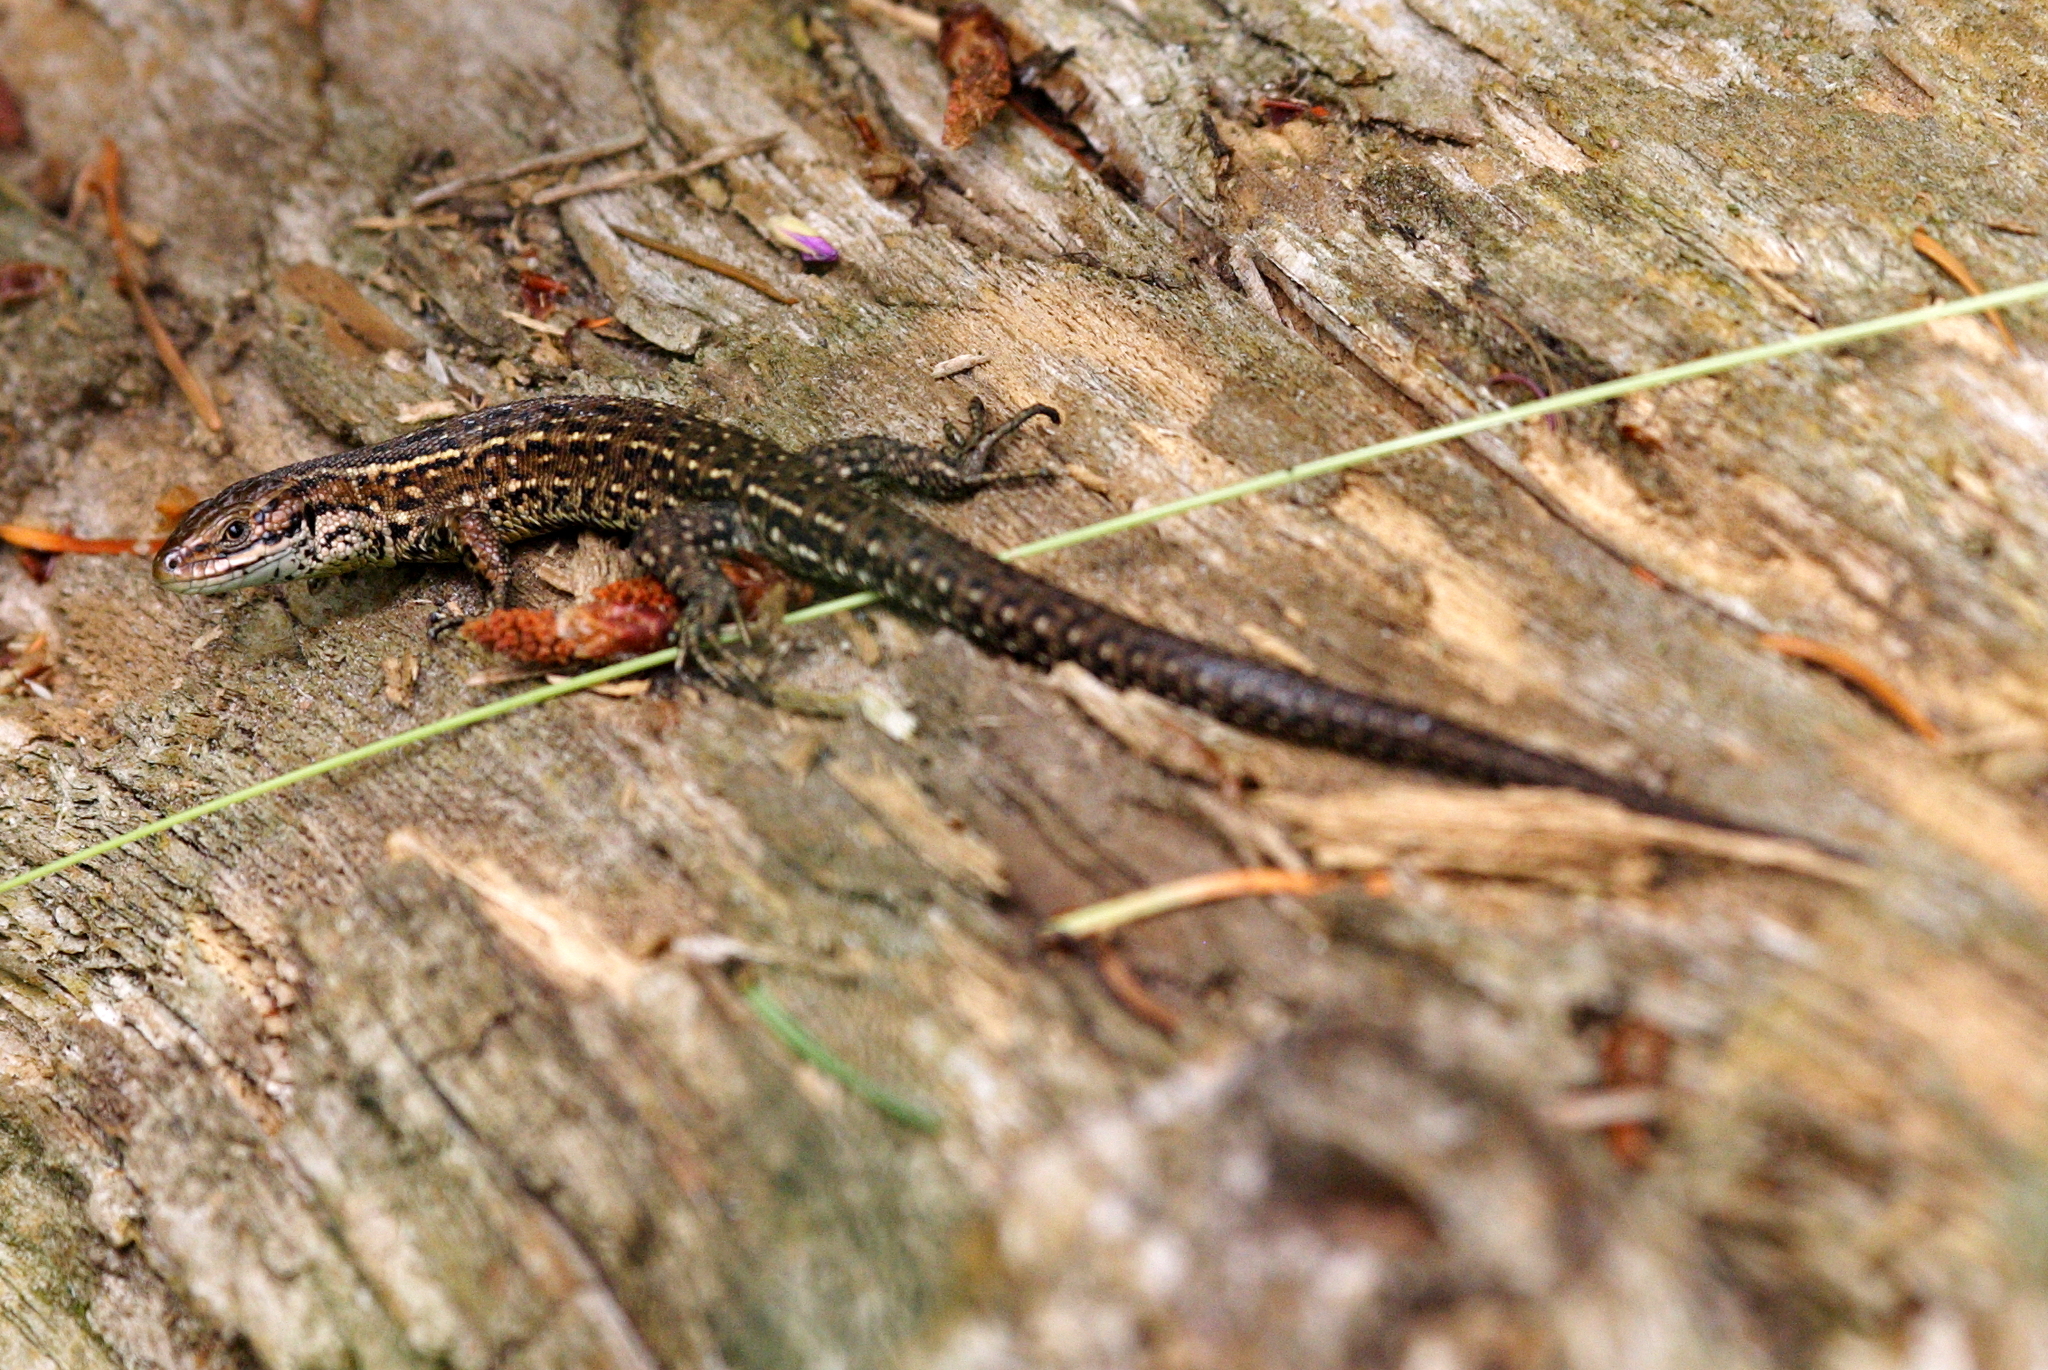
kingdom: Animalia
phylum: Chordata
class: Squamata
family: Lacertidae
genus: Zootoca
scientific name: Zootoca vivipara
